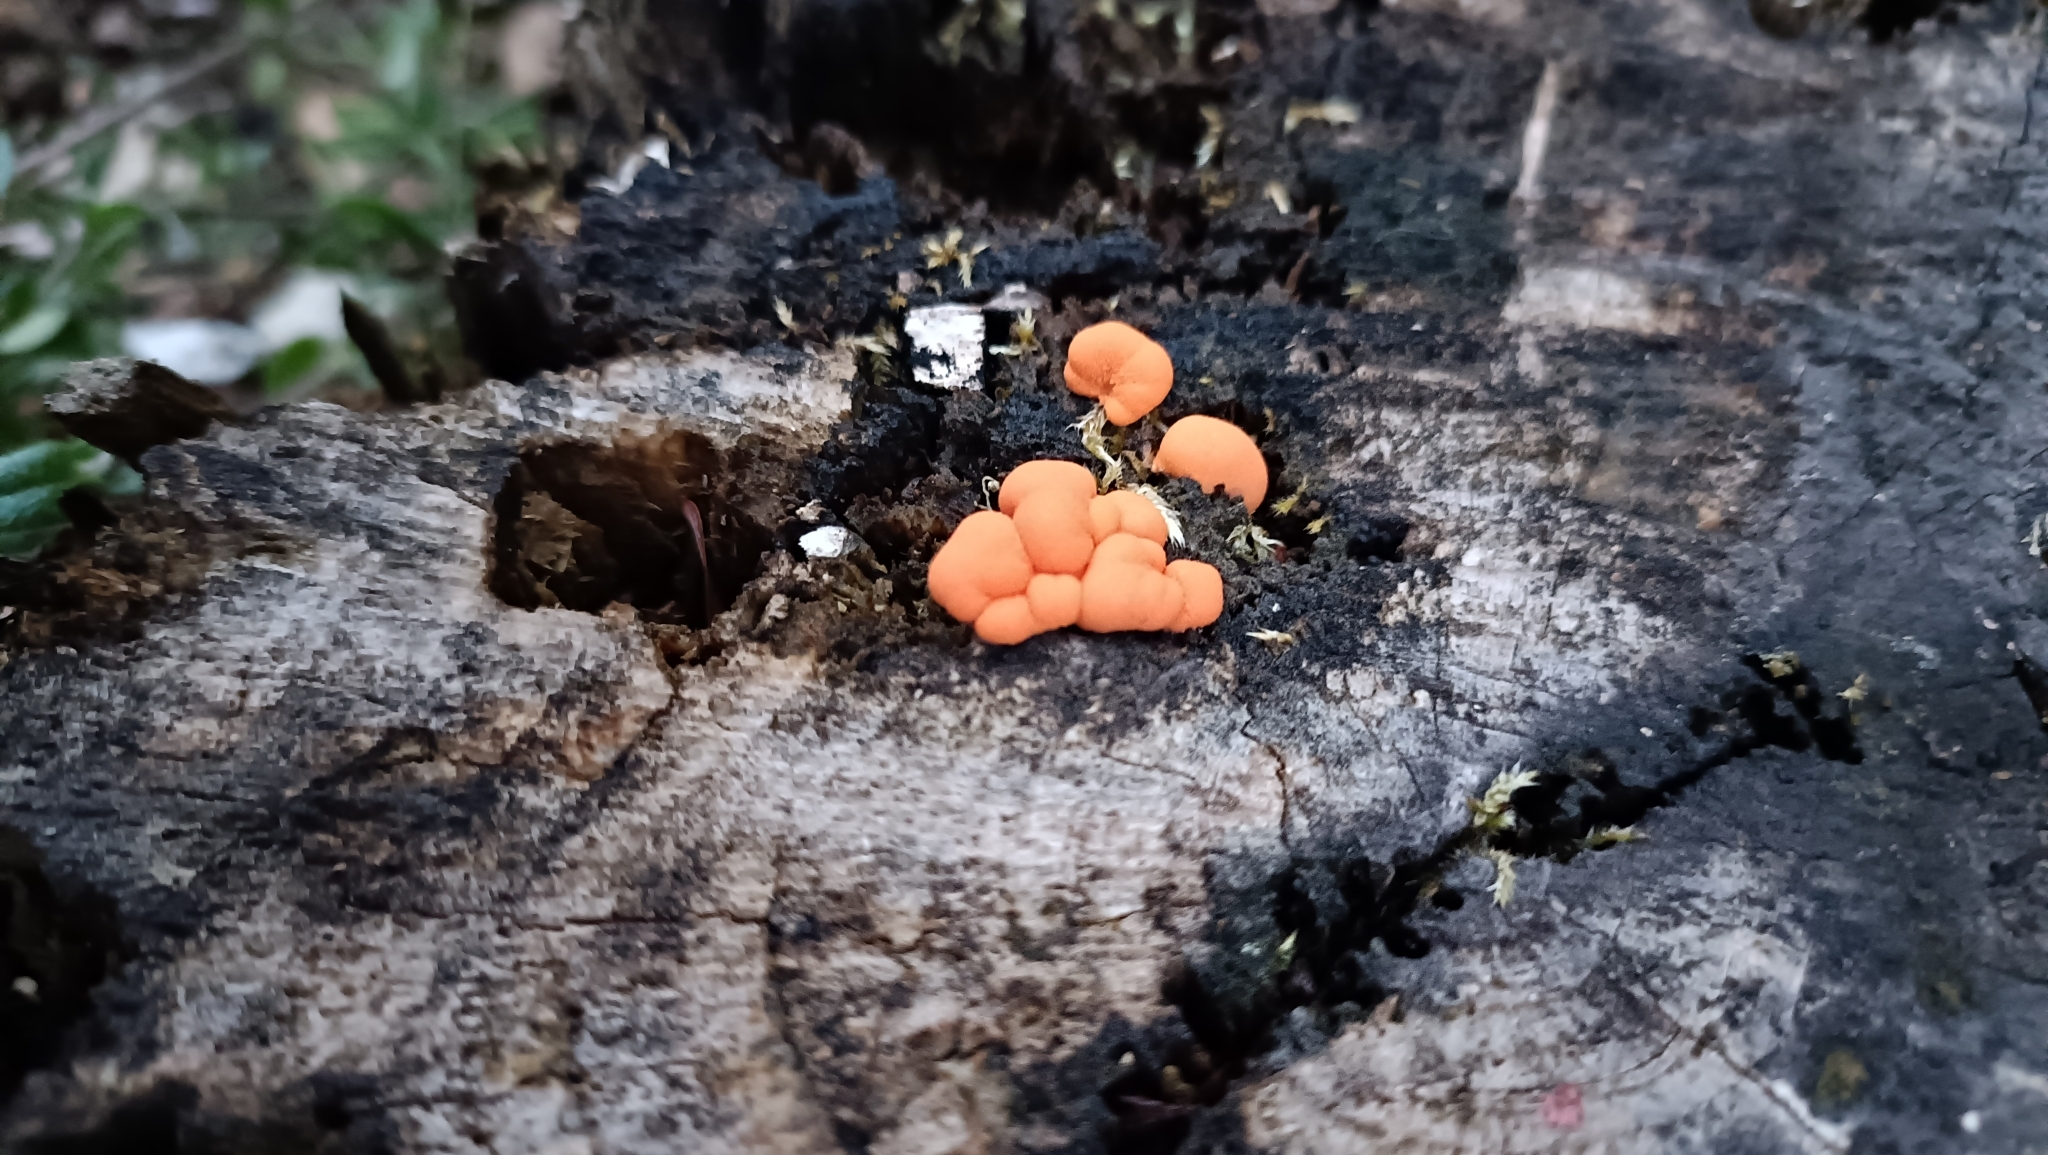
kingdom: Protozoa
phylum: Mycetozoa
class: Myxomycetes
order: Cribrariales
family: Tubiferaceae
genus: Lycogala
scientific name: Lycogala epidendrum
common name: Wolf's milk
